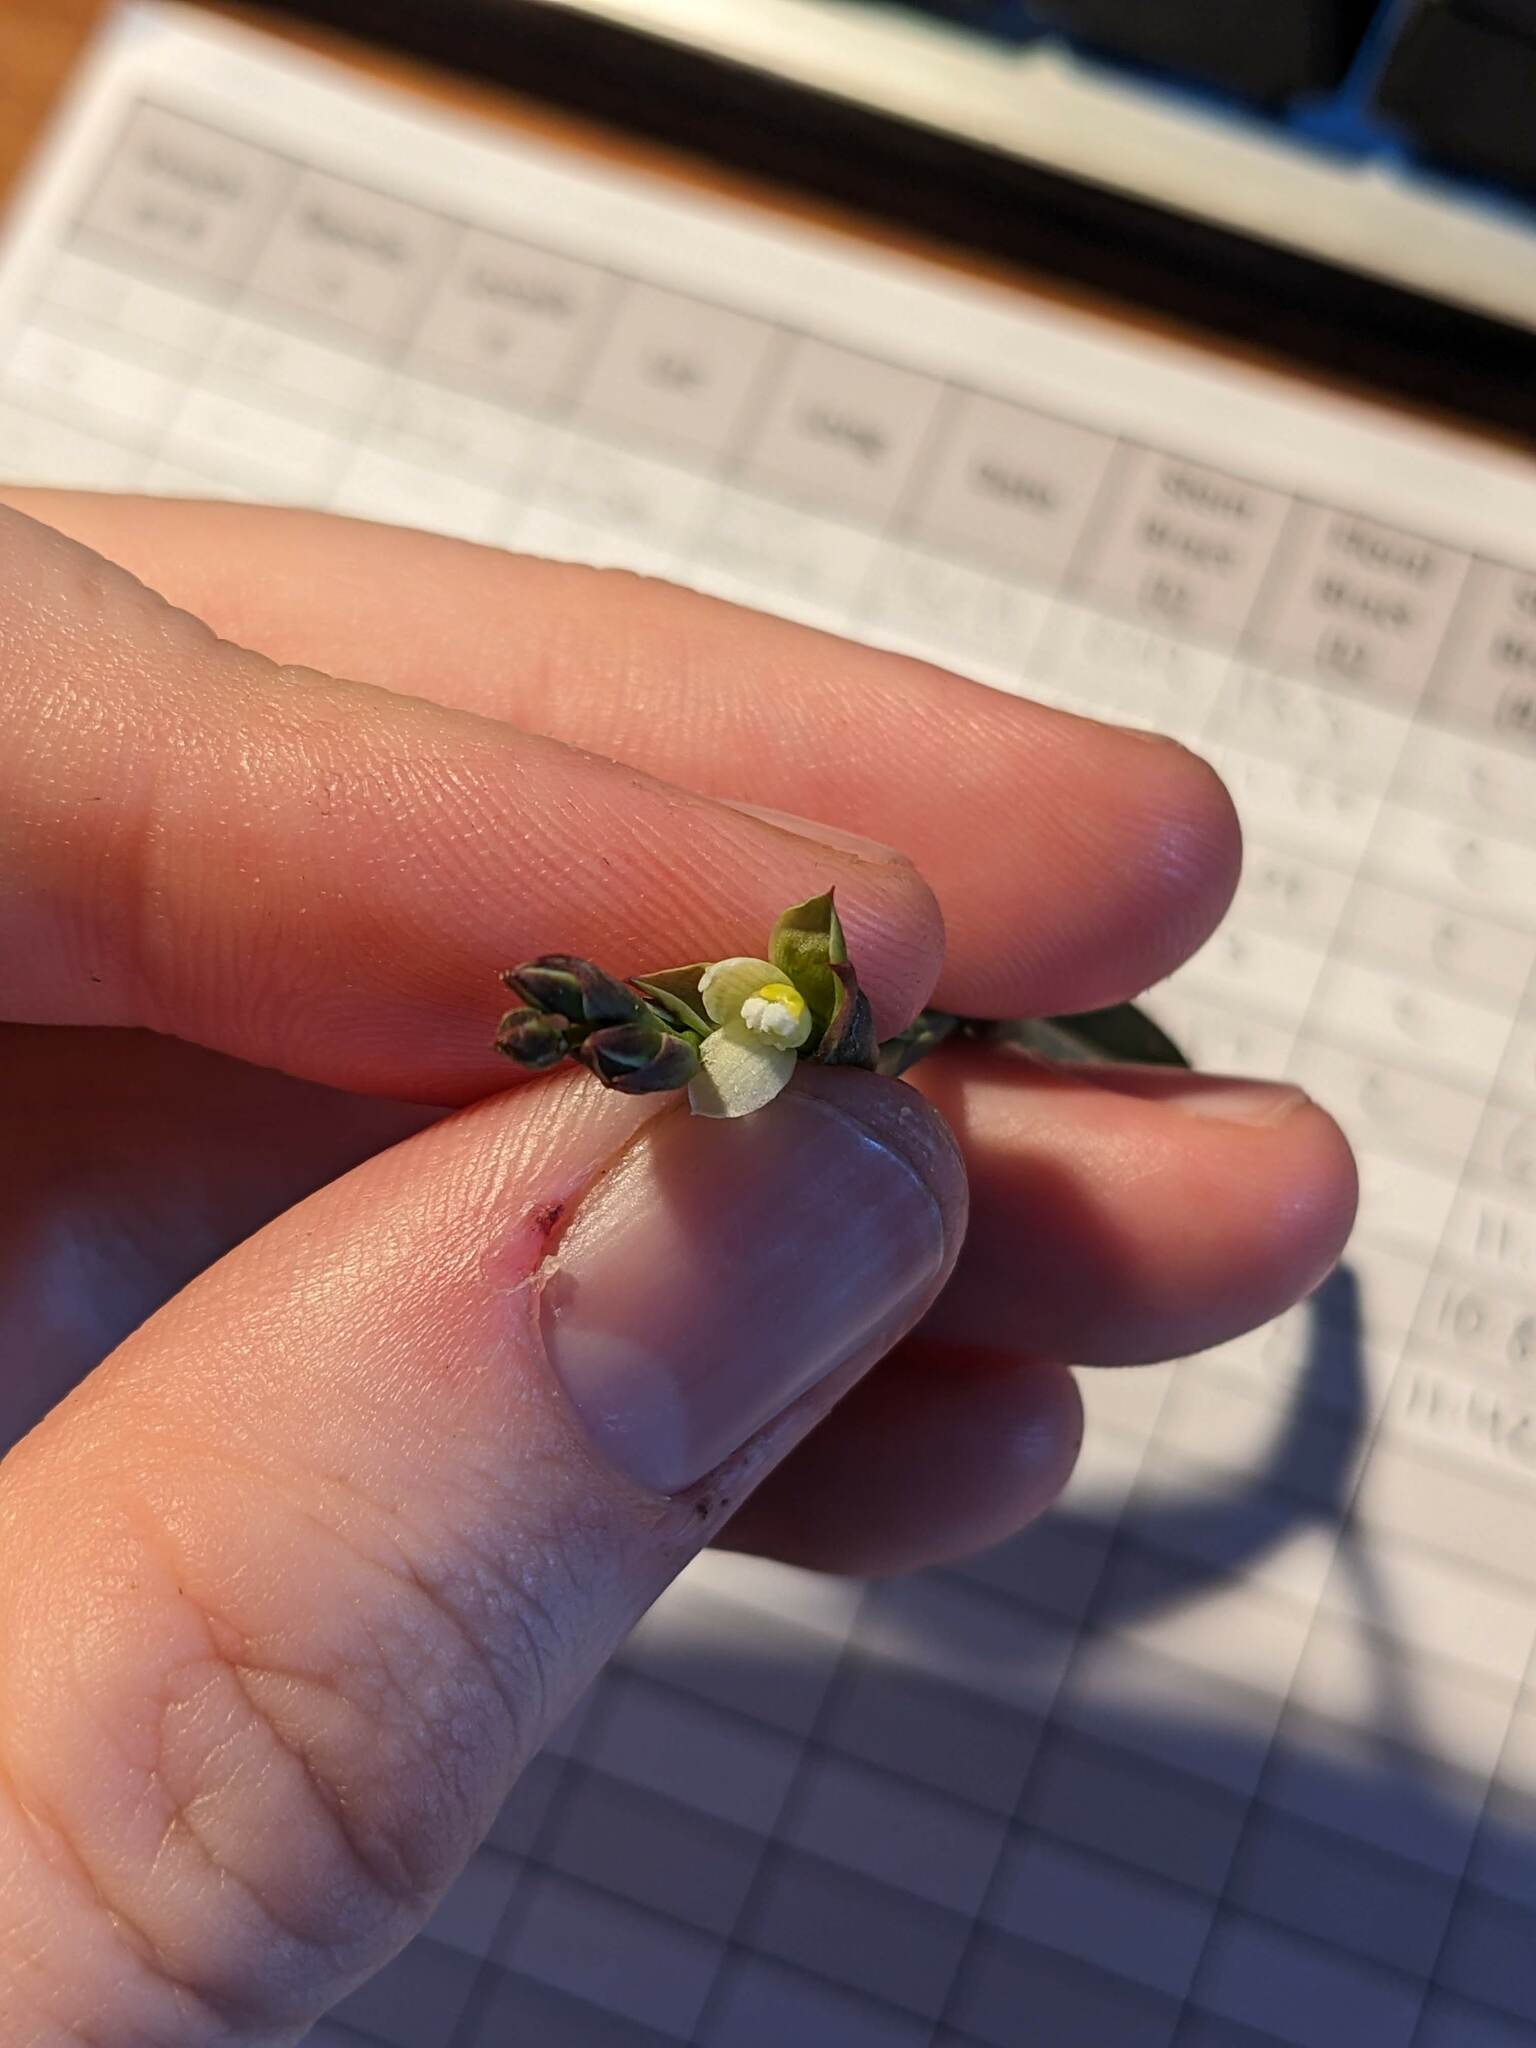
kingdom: Plantae
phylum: Tracheophyta
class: Liliopsida
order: Asparagales
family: Orchidaceae
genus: Thelymitra
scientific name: Thelymitra longifolia
